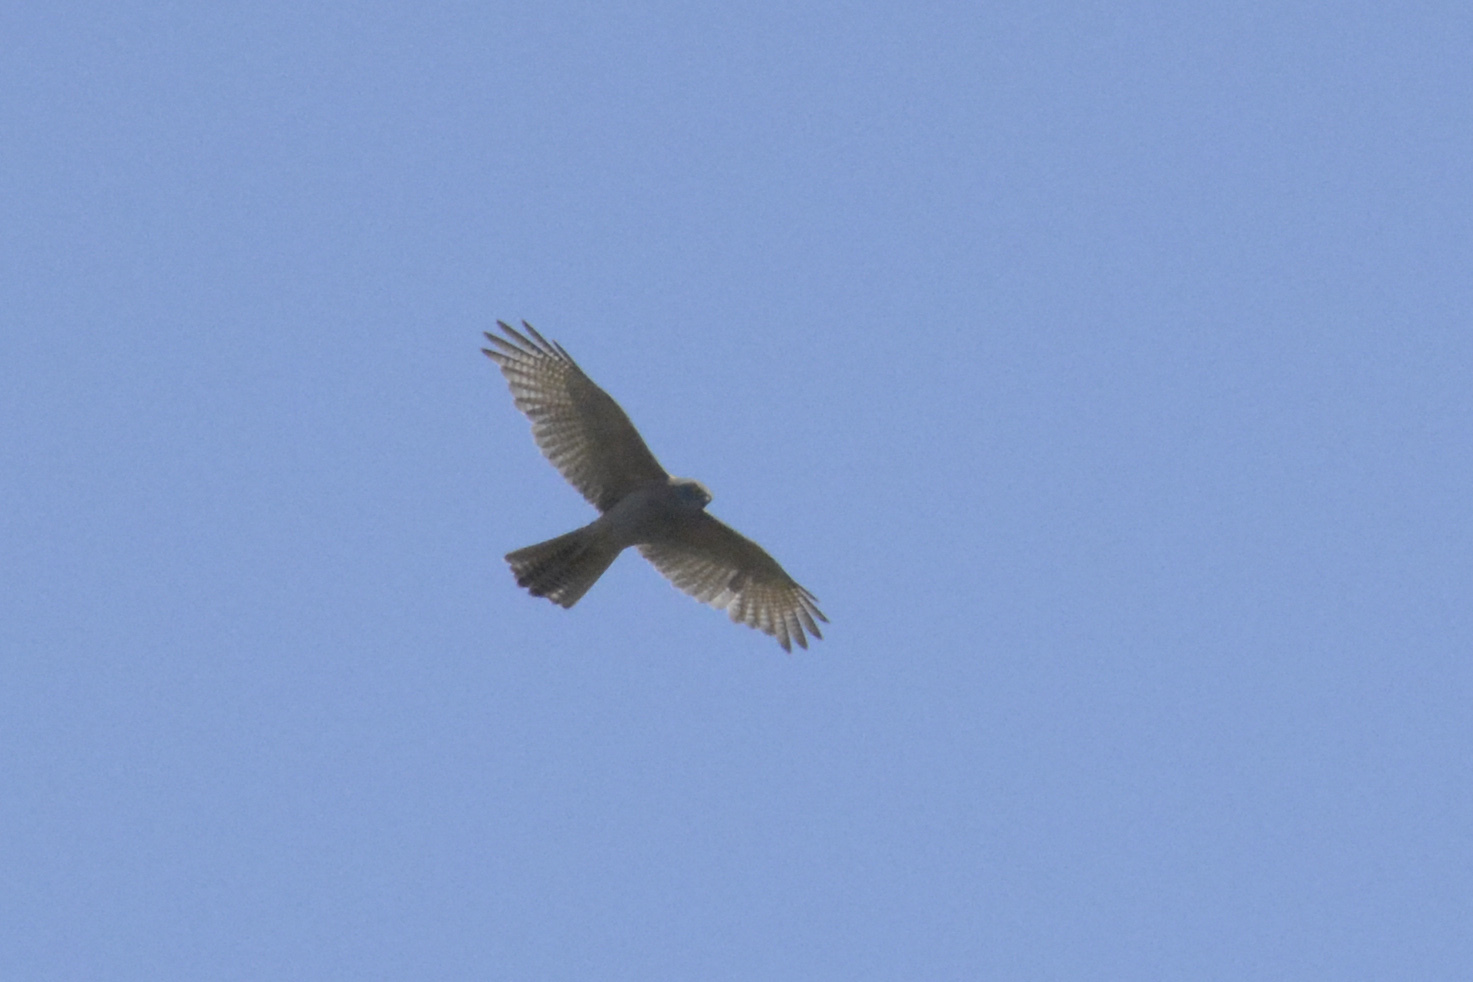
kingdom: Animalia
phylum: Chordata
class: Aves
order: Accipitriformes
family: Accipitridae
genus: Accipiter
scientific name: Accipiter fasciatus
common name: Brown goshawk
